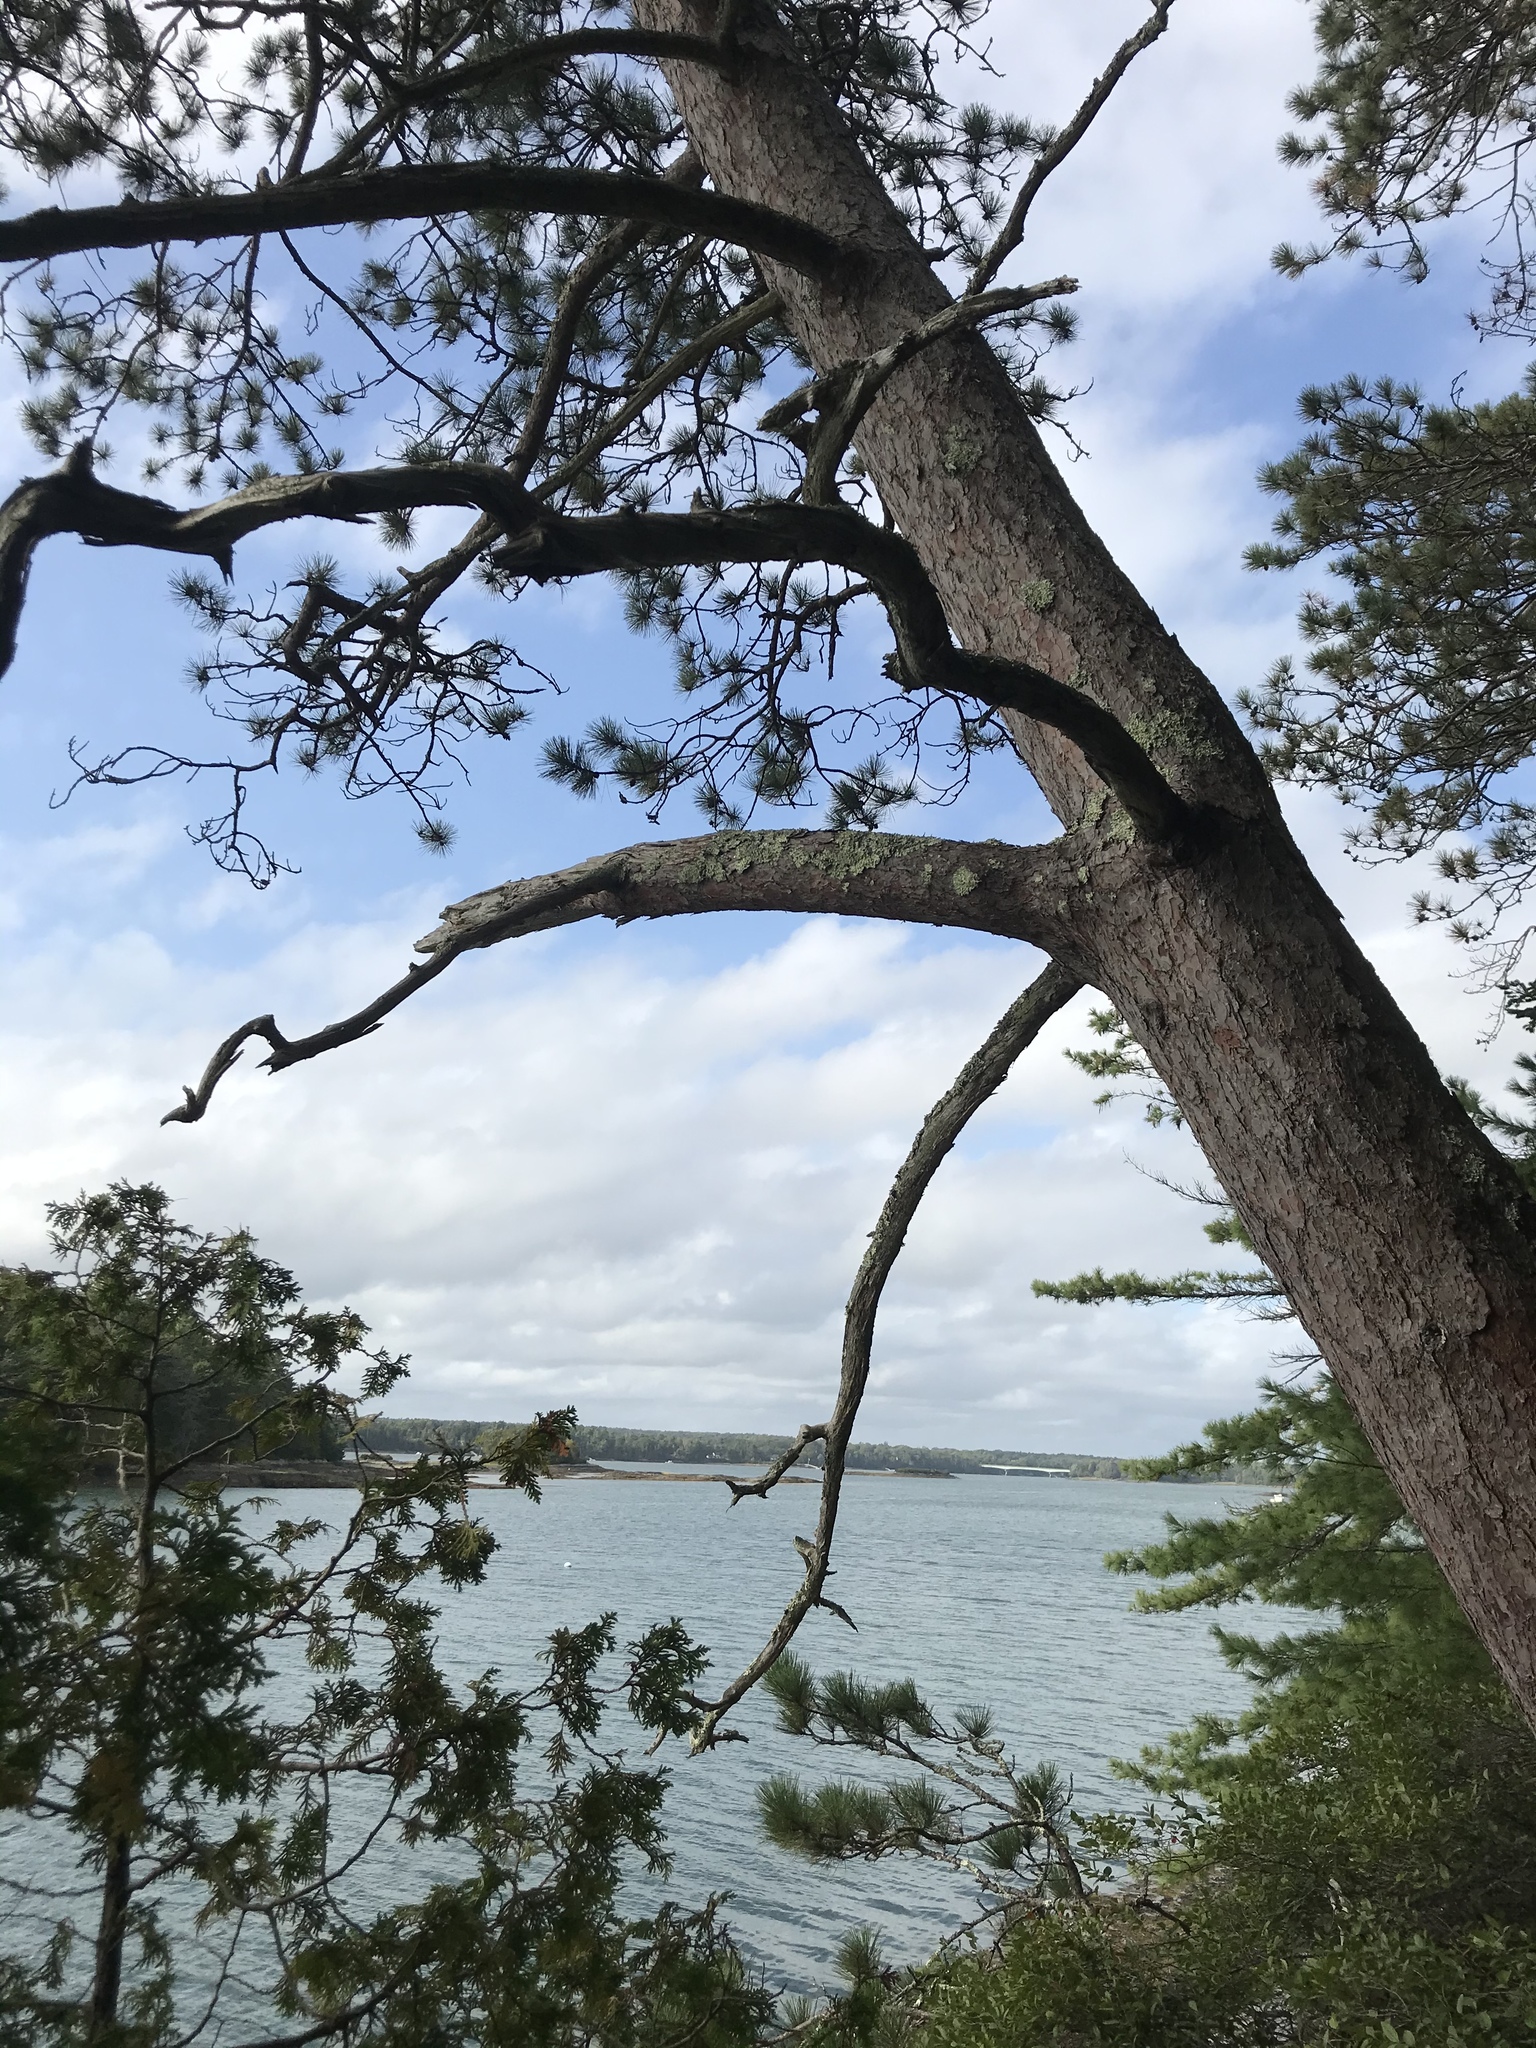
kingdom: Plantae
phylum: Tracheophyta
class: Pinopsida
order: Pinales
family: Pinaceae
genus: Pinus
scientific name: Pinus resinosa
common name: Norway pine
